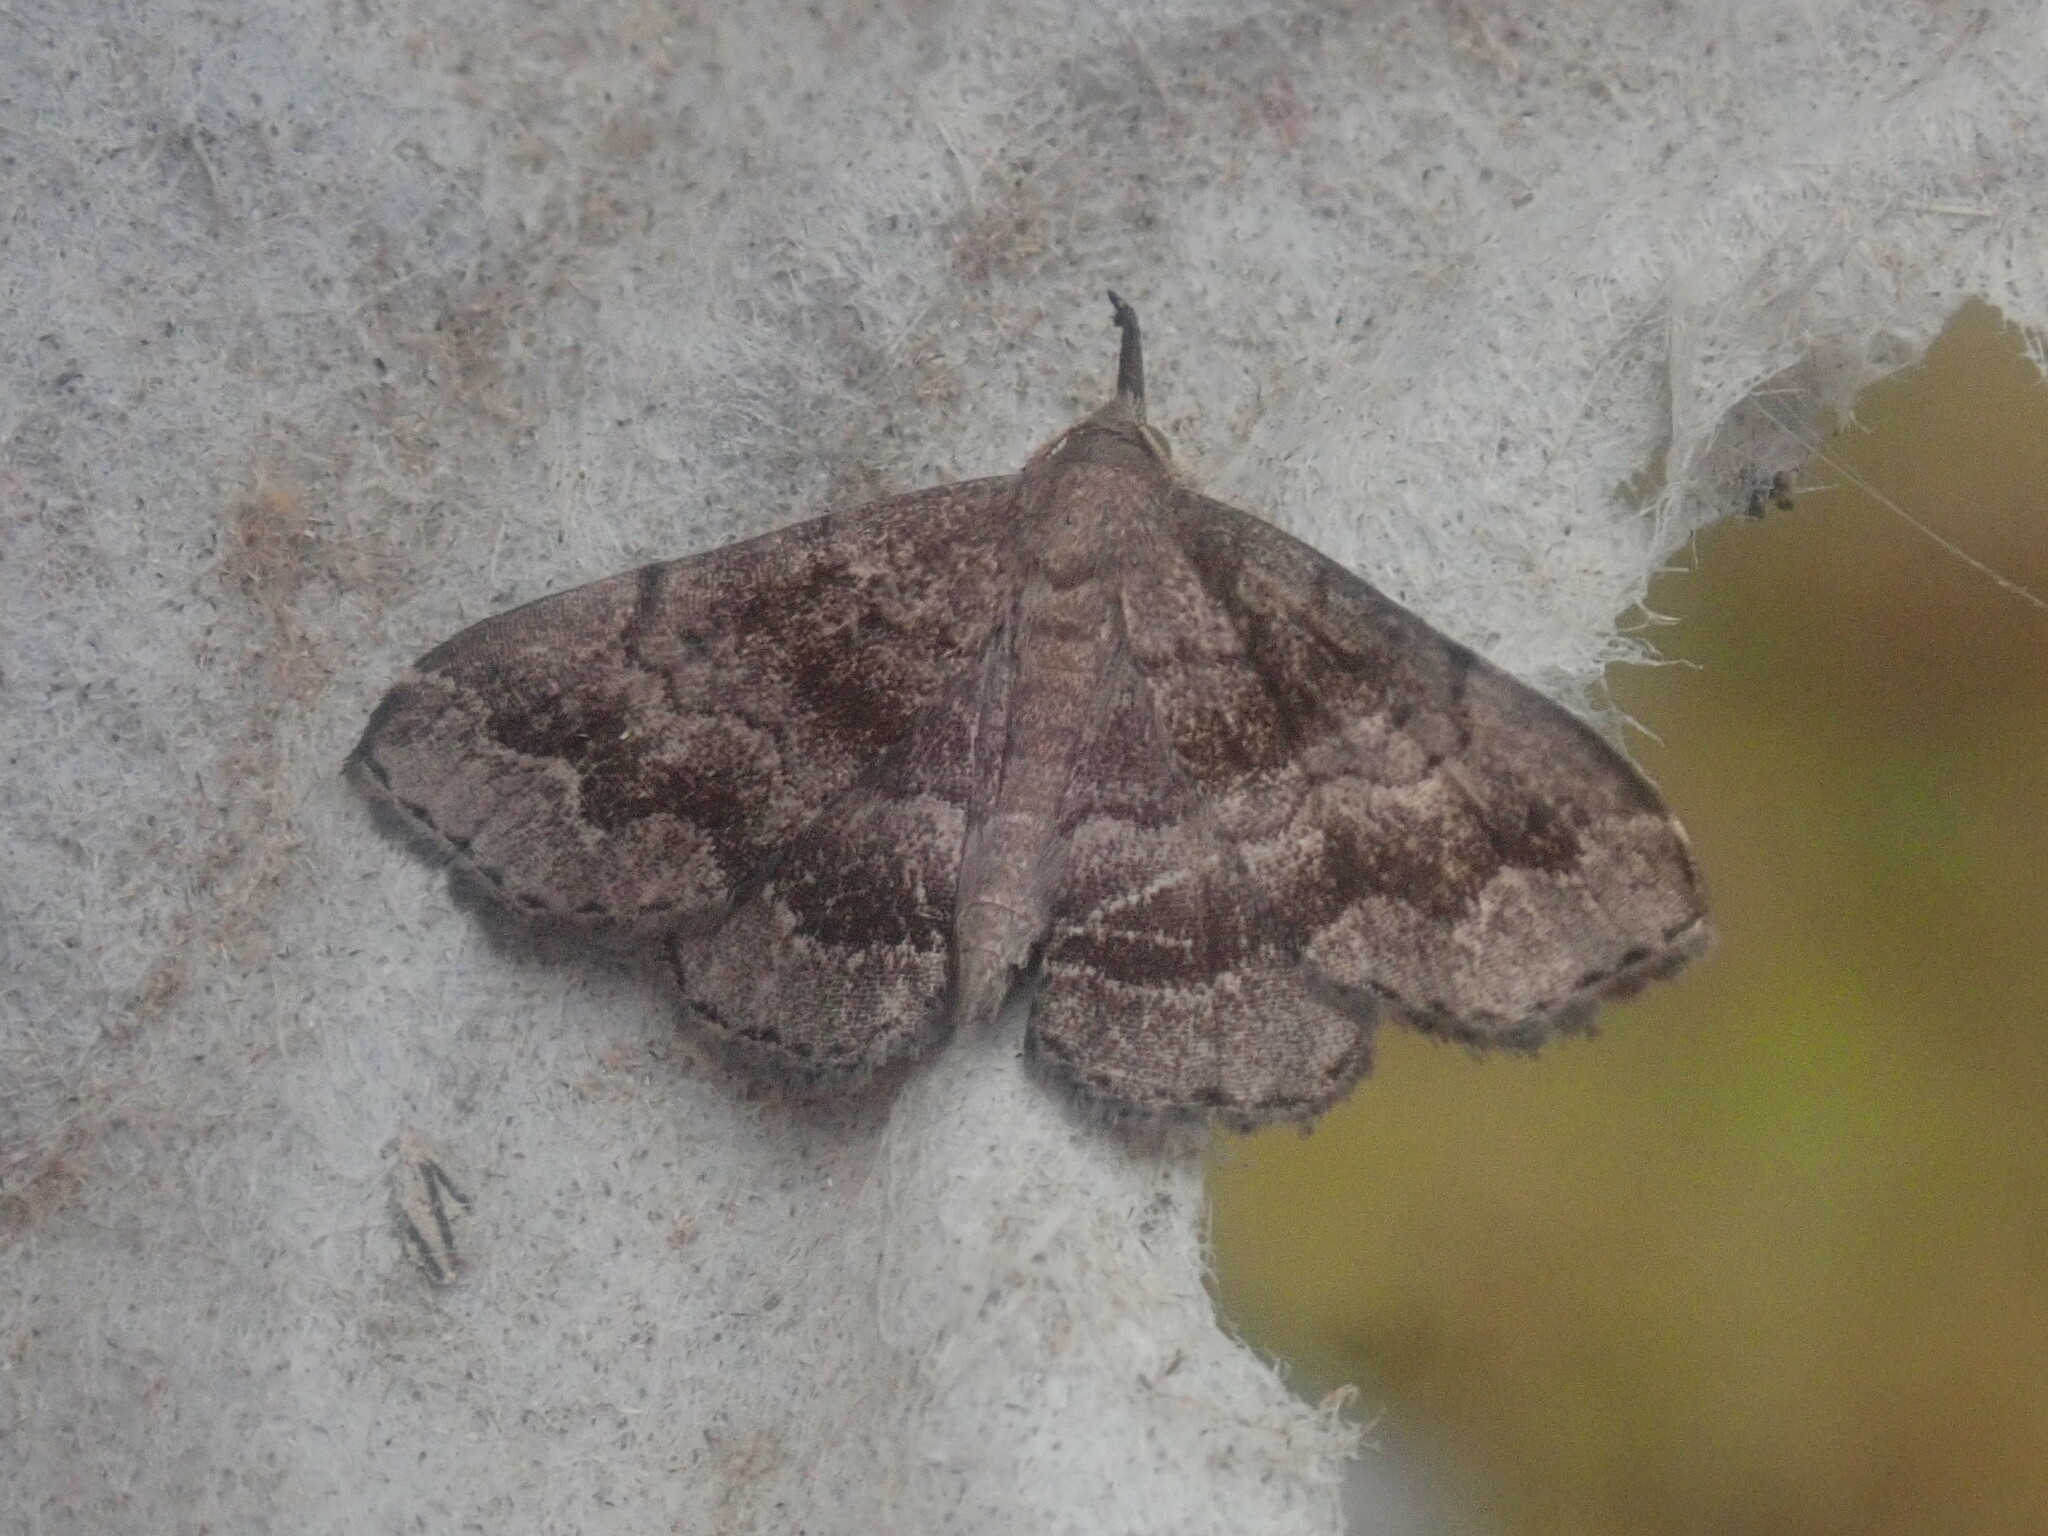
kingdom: Animalia
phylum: Arthropoda
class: Insecta
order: Lepidoptera
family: Erebidae
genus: Phalaenostola
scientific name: Phalaenostola larentioides
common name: Black-banded owlet
